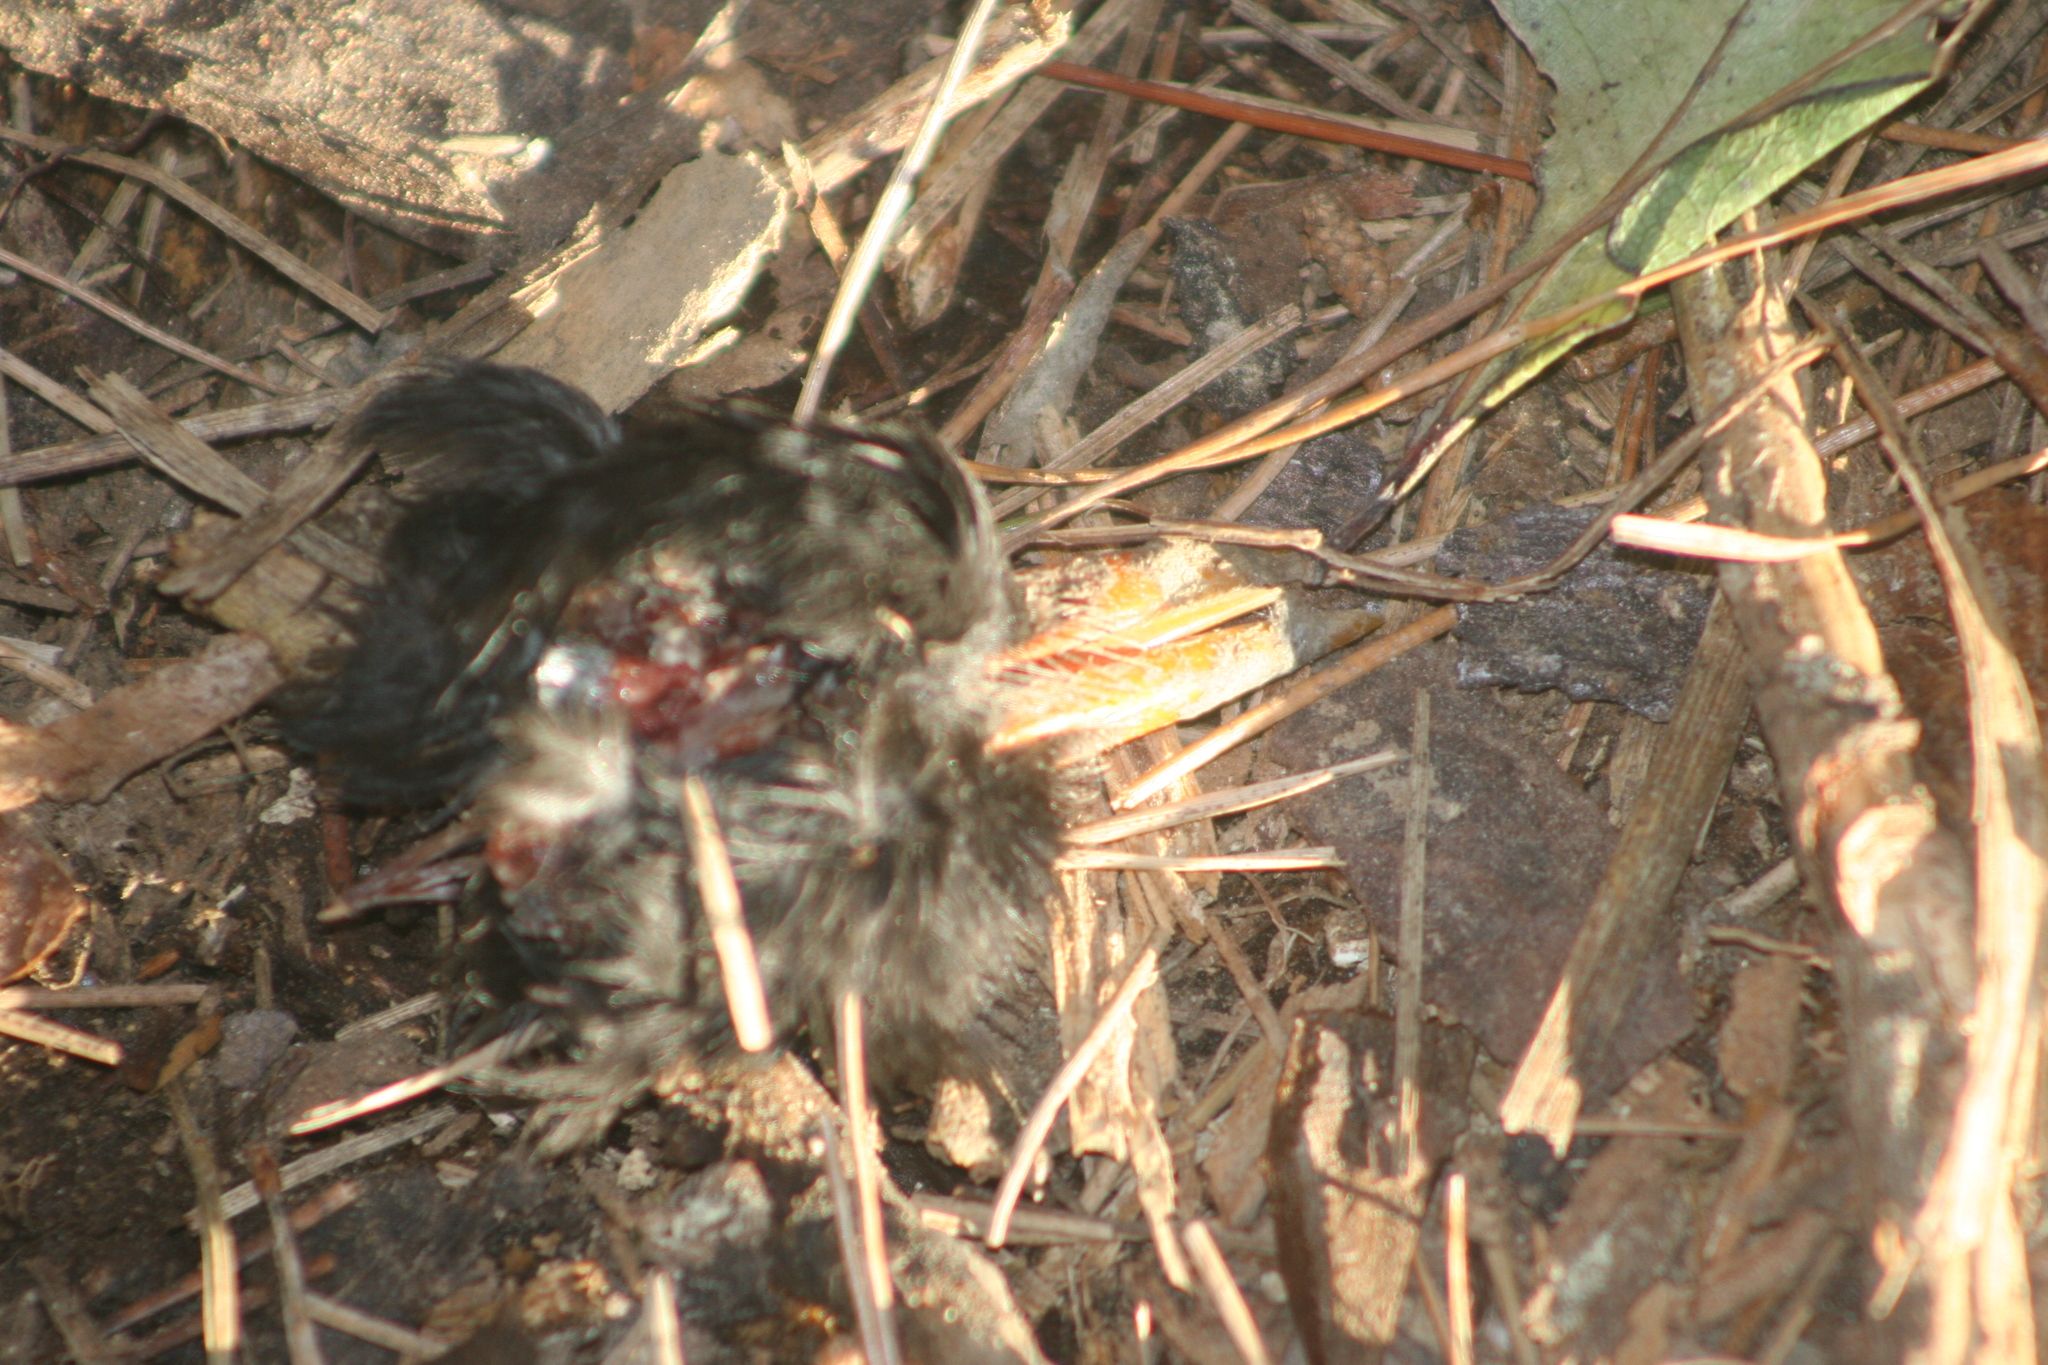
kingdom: Animalia
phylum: Chordata
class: Aves
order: Passeriformes
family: Turdidae
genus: Turdus
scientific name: Turdus merula
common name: Common blackbird
